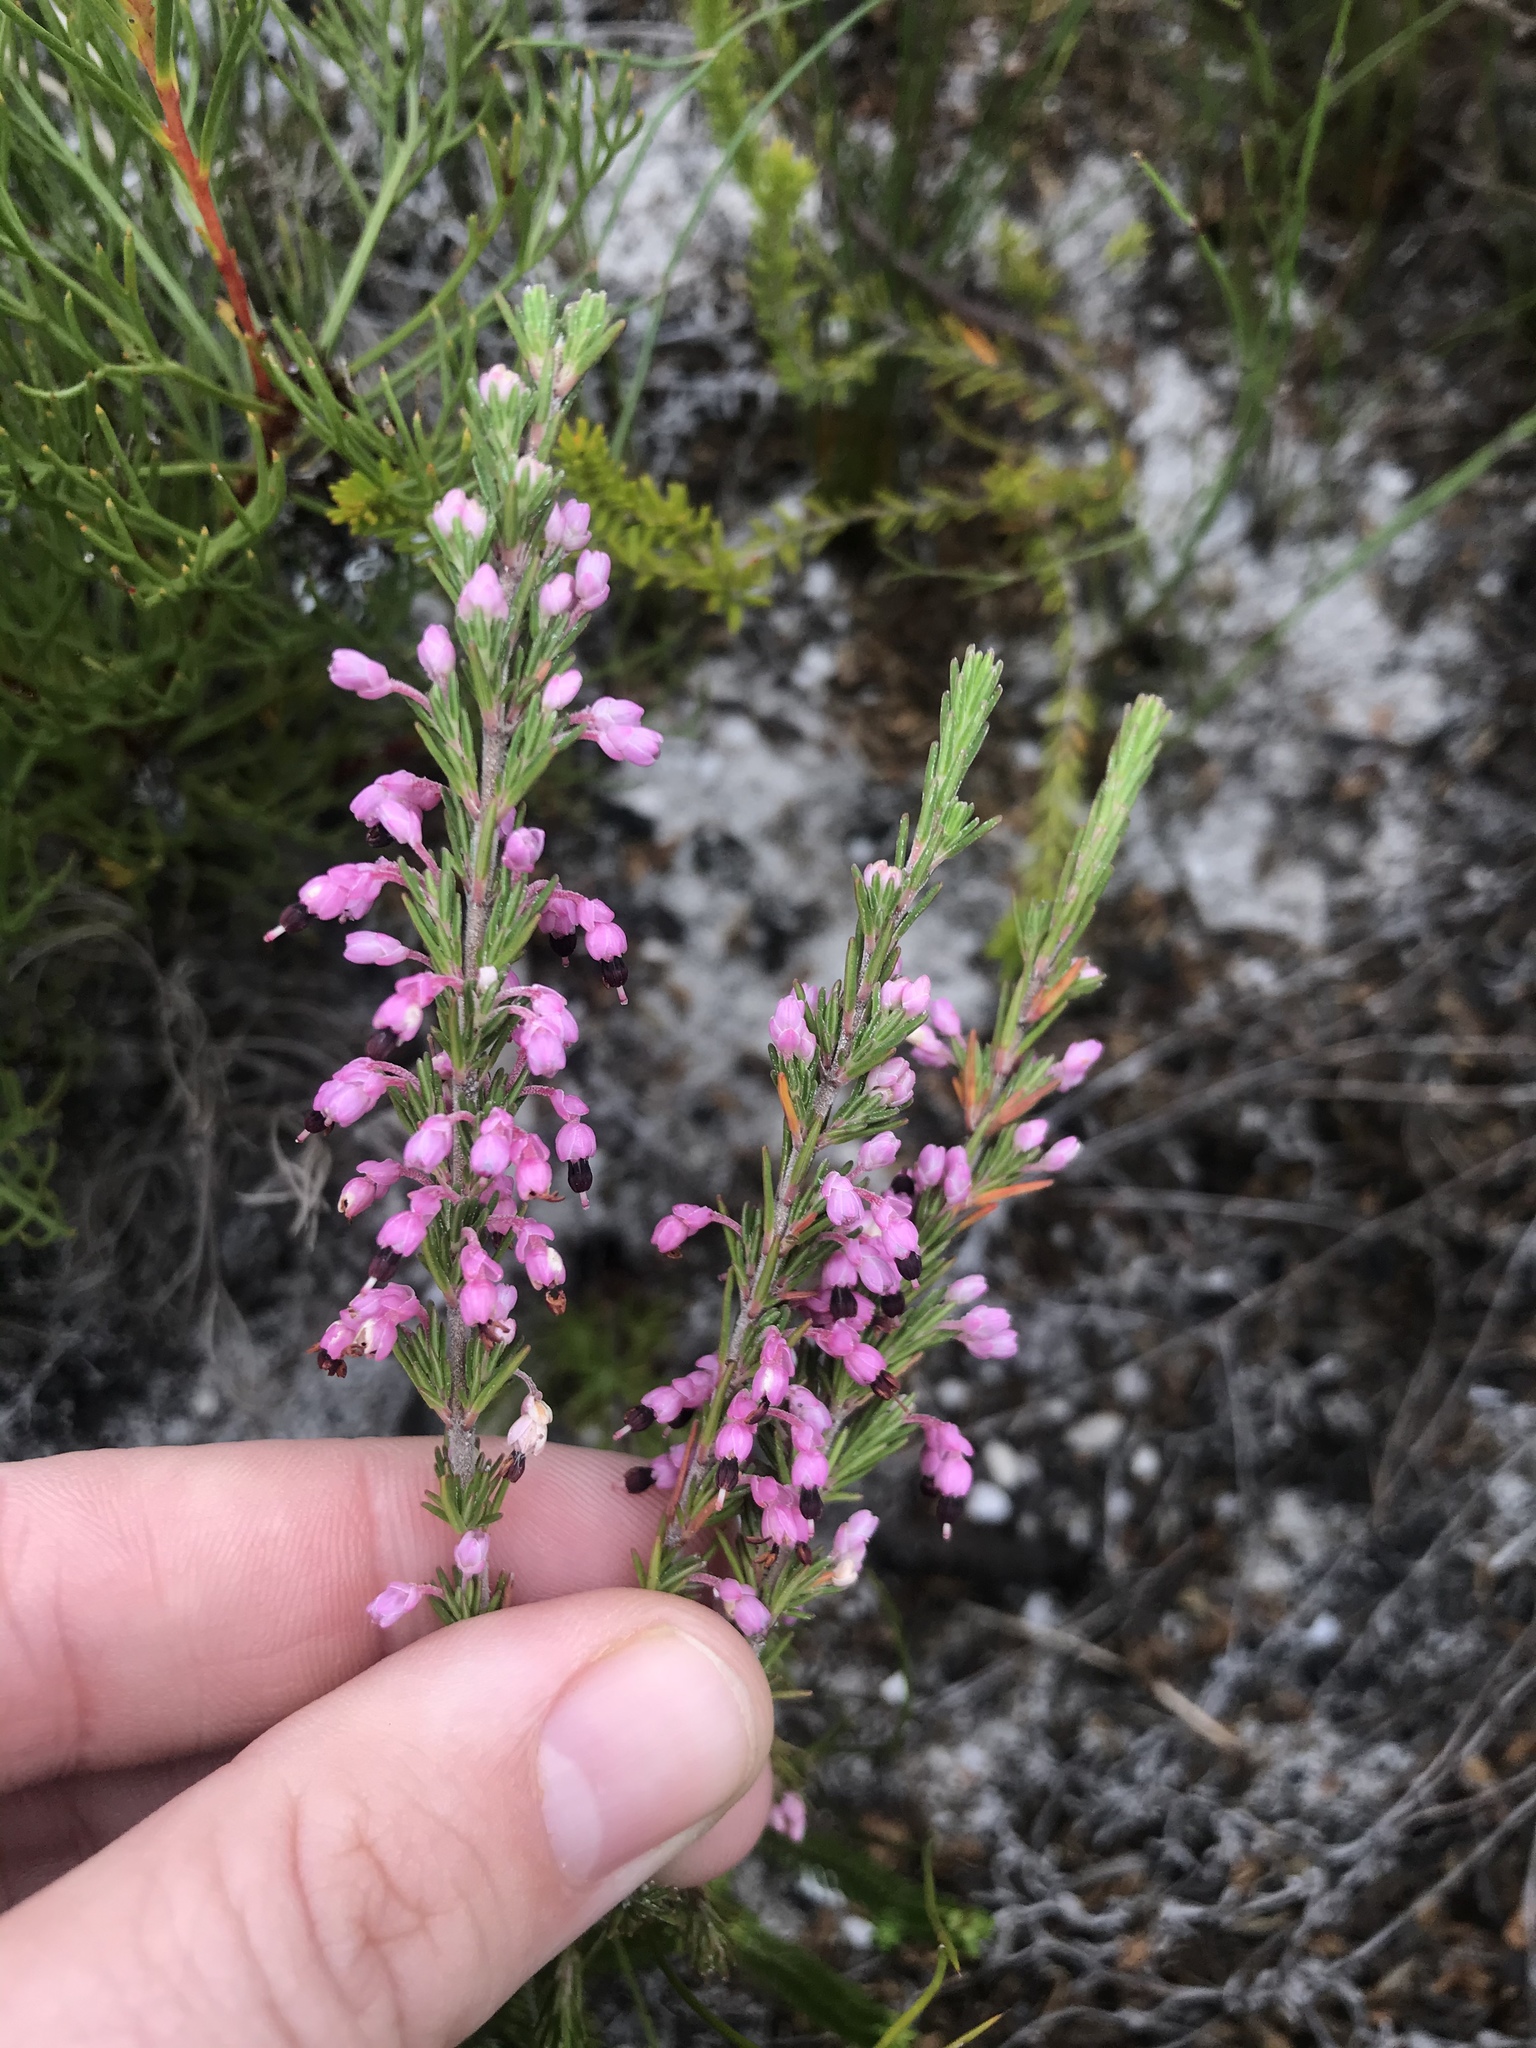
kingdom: Plantae
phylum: Tracheophyta
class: Magnoliopsida
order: Ericales
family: Ericaceae
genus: Erica
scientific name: Erica placentiflora
